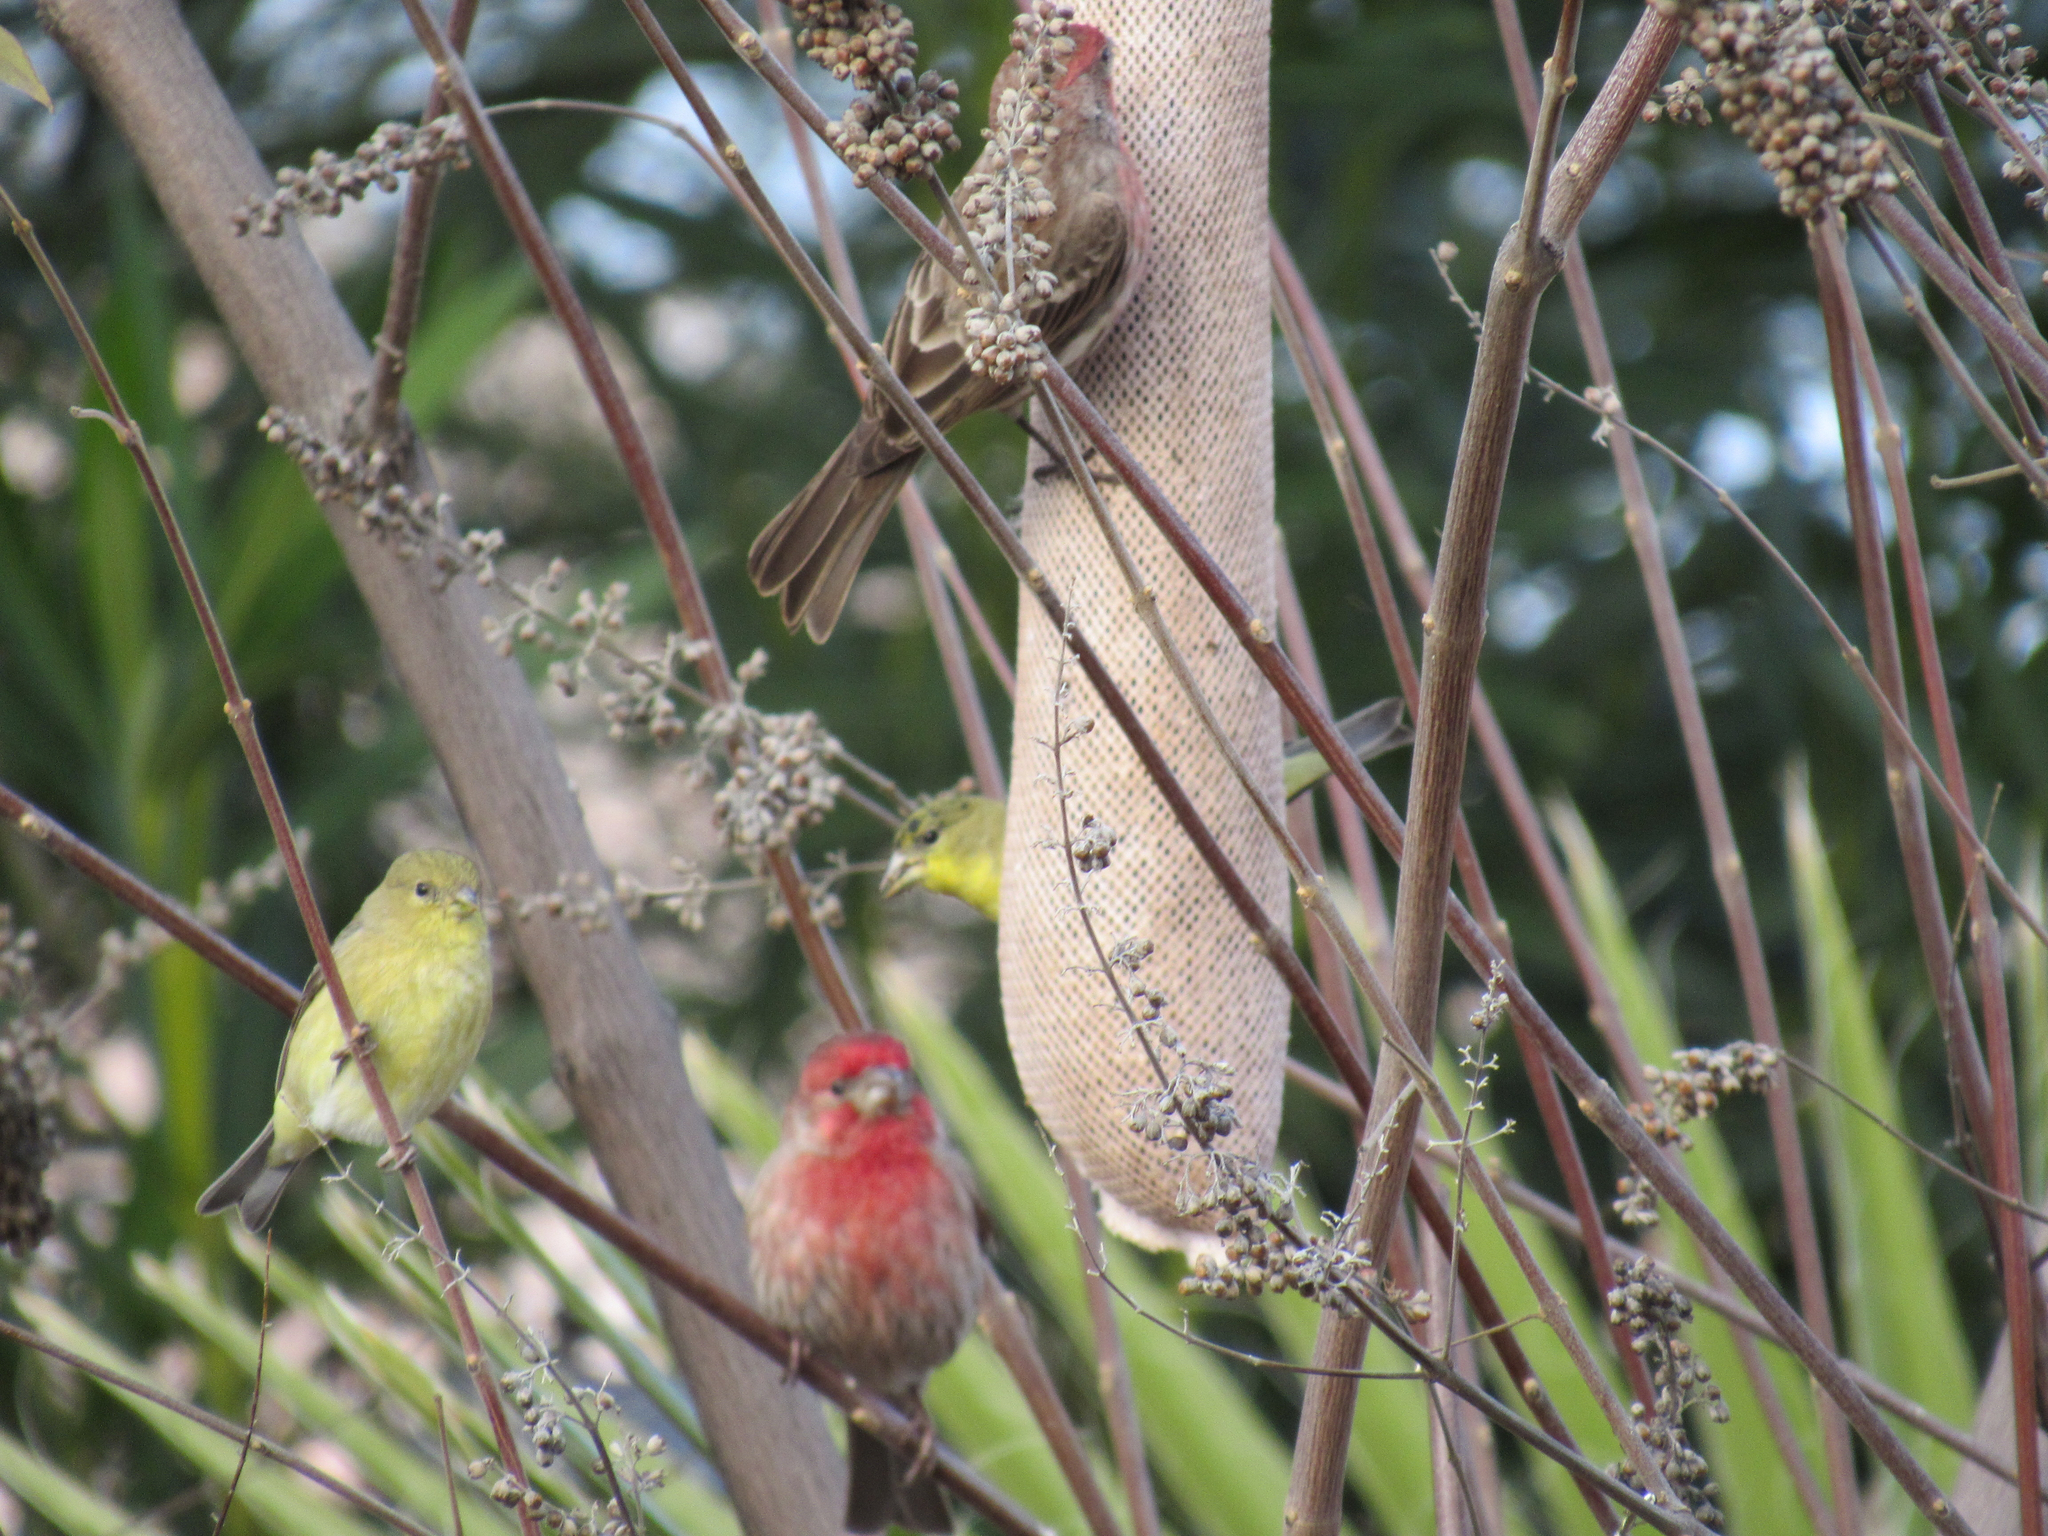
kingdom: Animalia
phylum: Chordata
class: Aves
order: Passeriformes
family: Fringillidae
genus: Haemorhous
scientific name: Haemorhous mexicanus
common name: House finch
